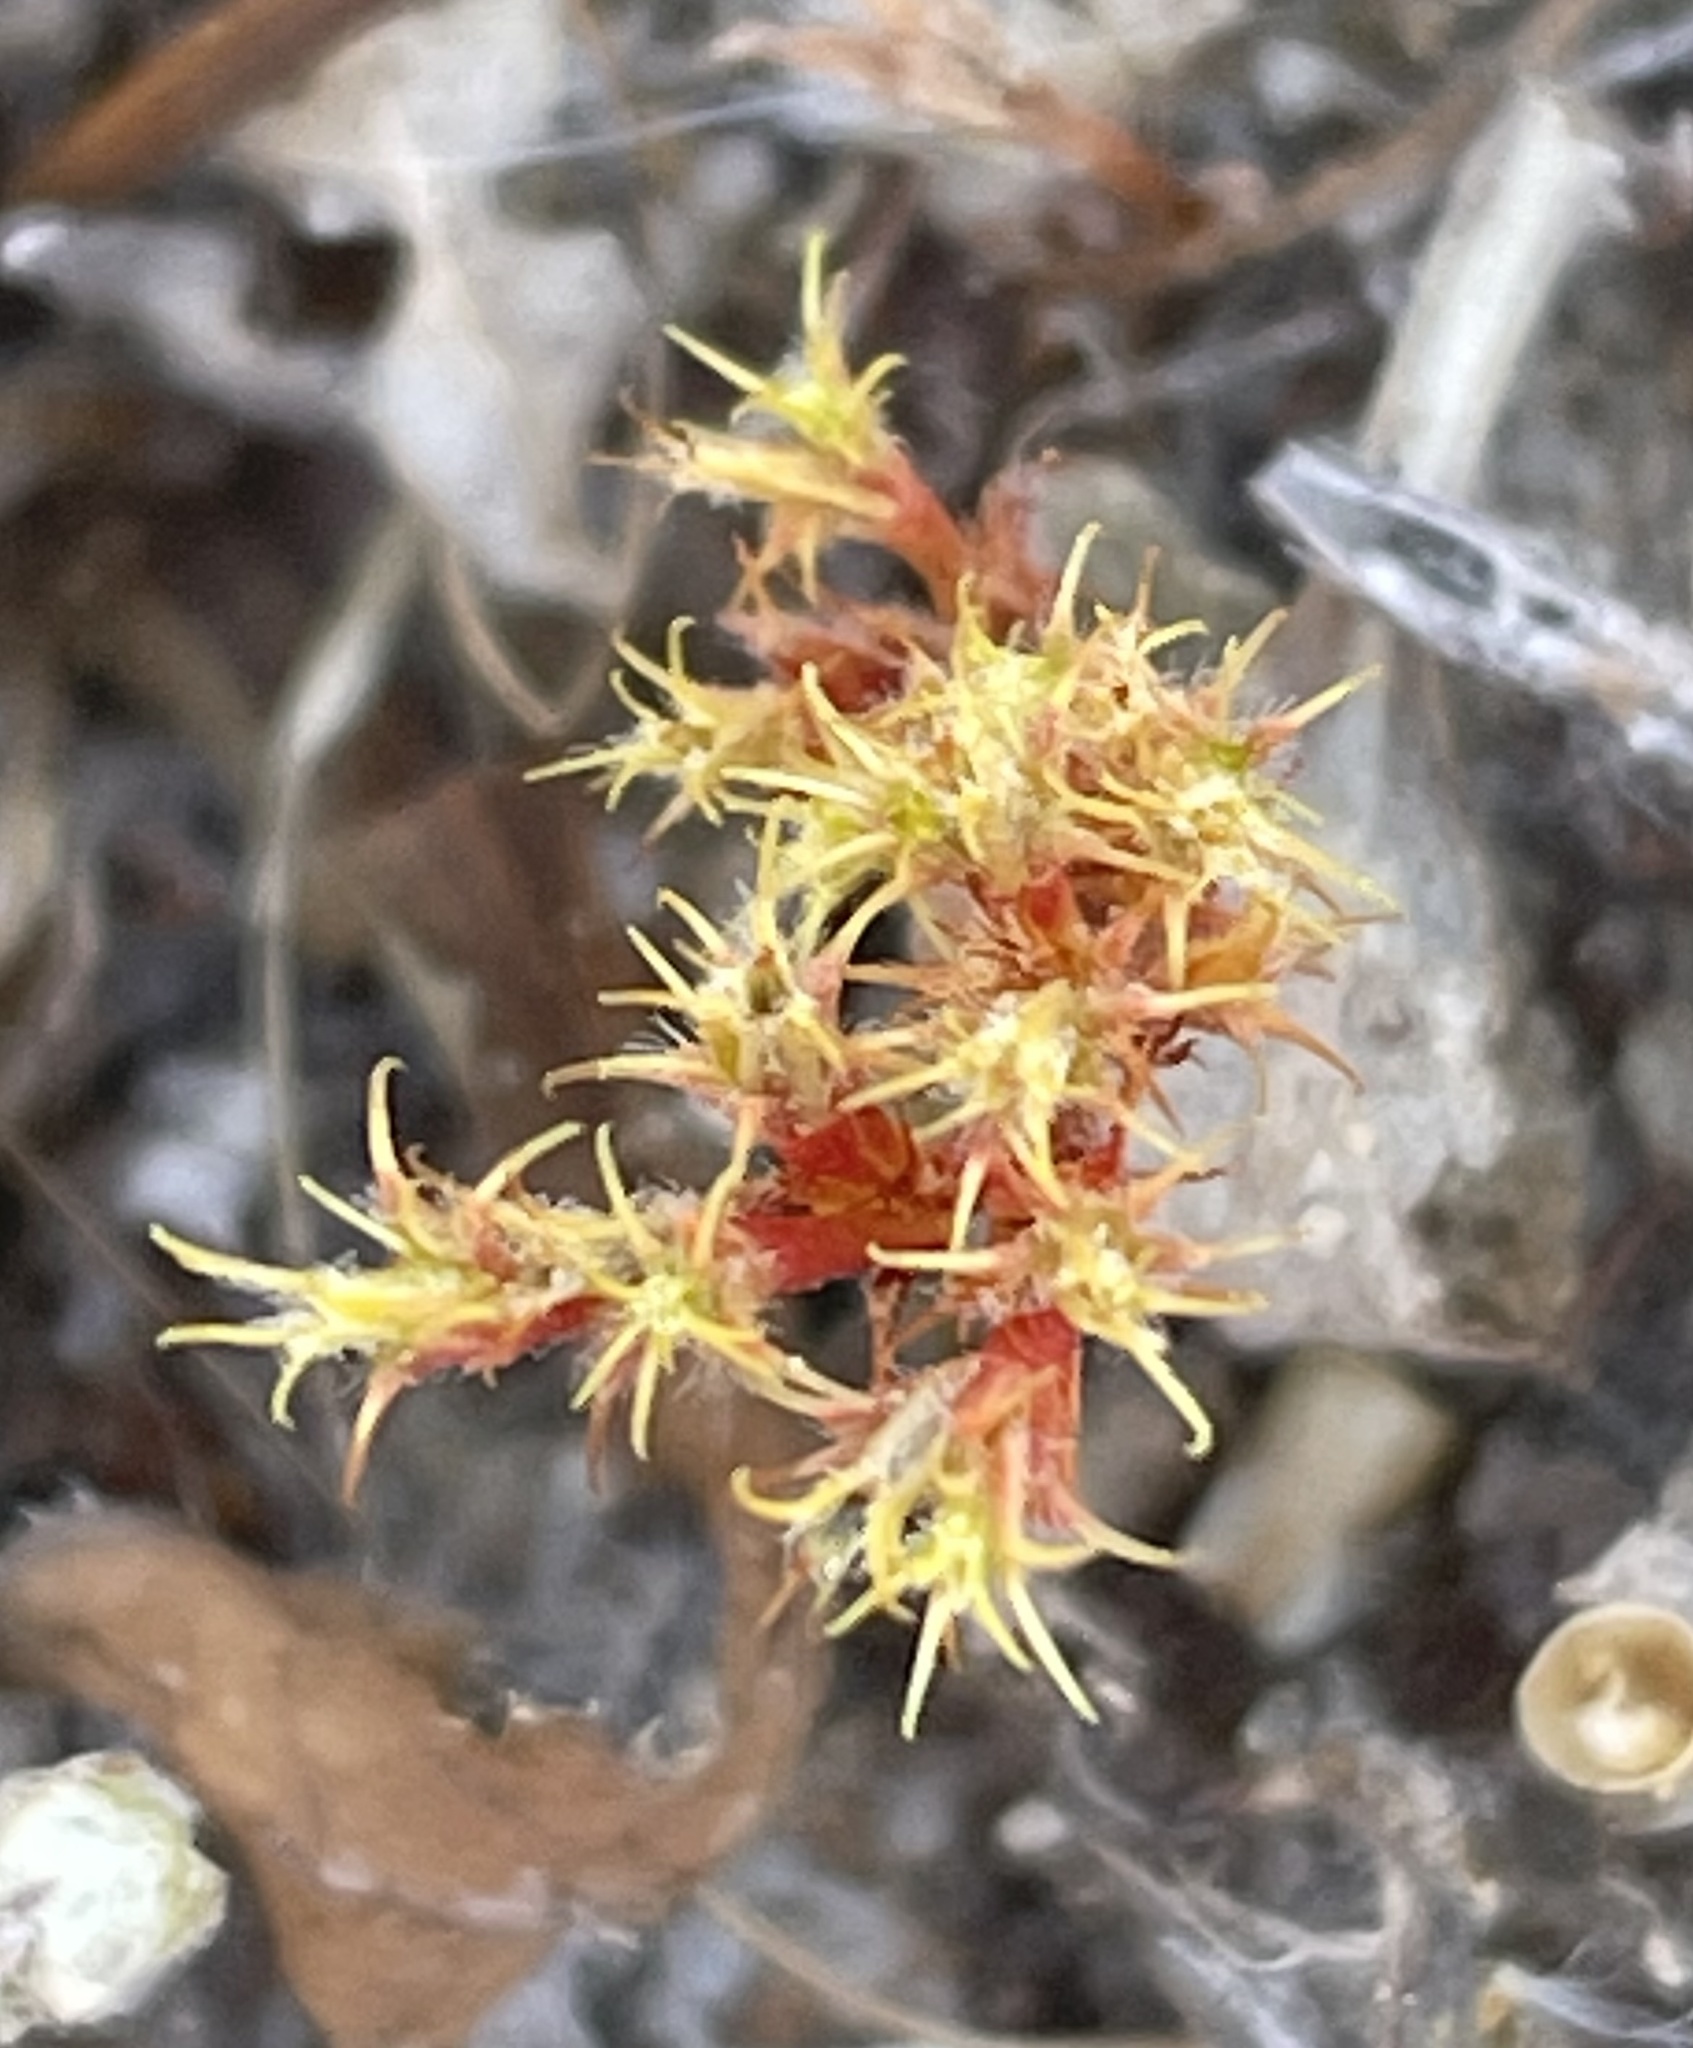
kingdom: Plantae
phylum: Tracheophyta
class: Magnoliopsida
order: Caryophyllales
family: Polygonaceae
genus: Lastarriaea
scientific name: Lastarriaea coriacea
